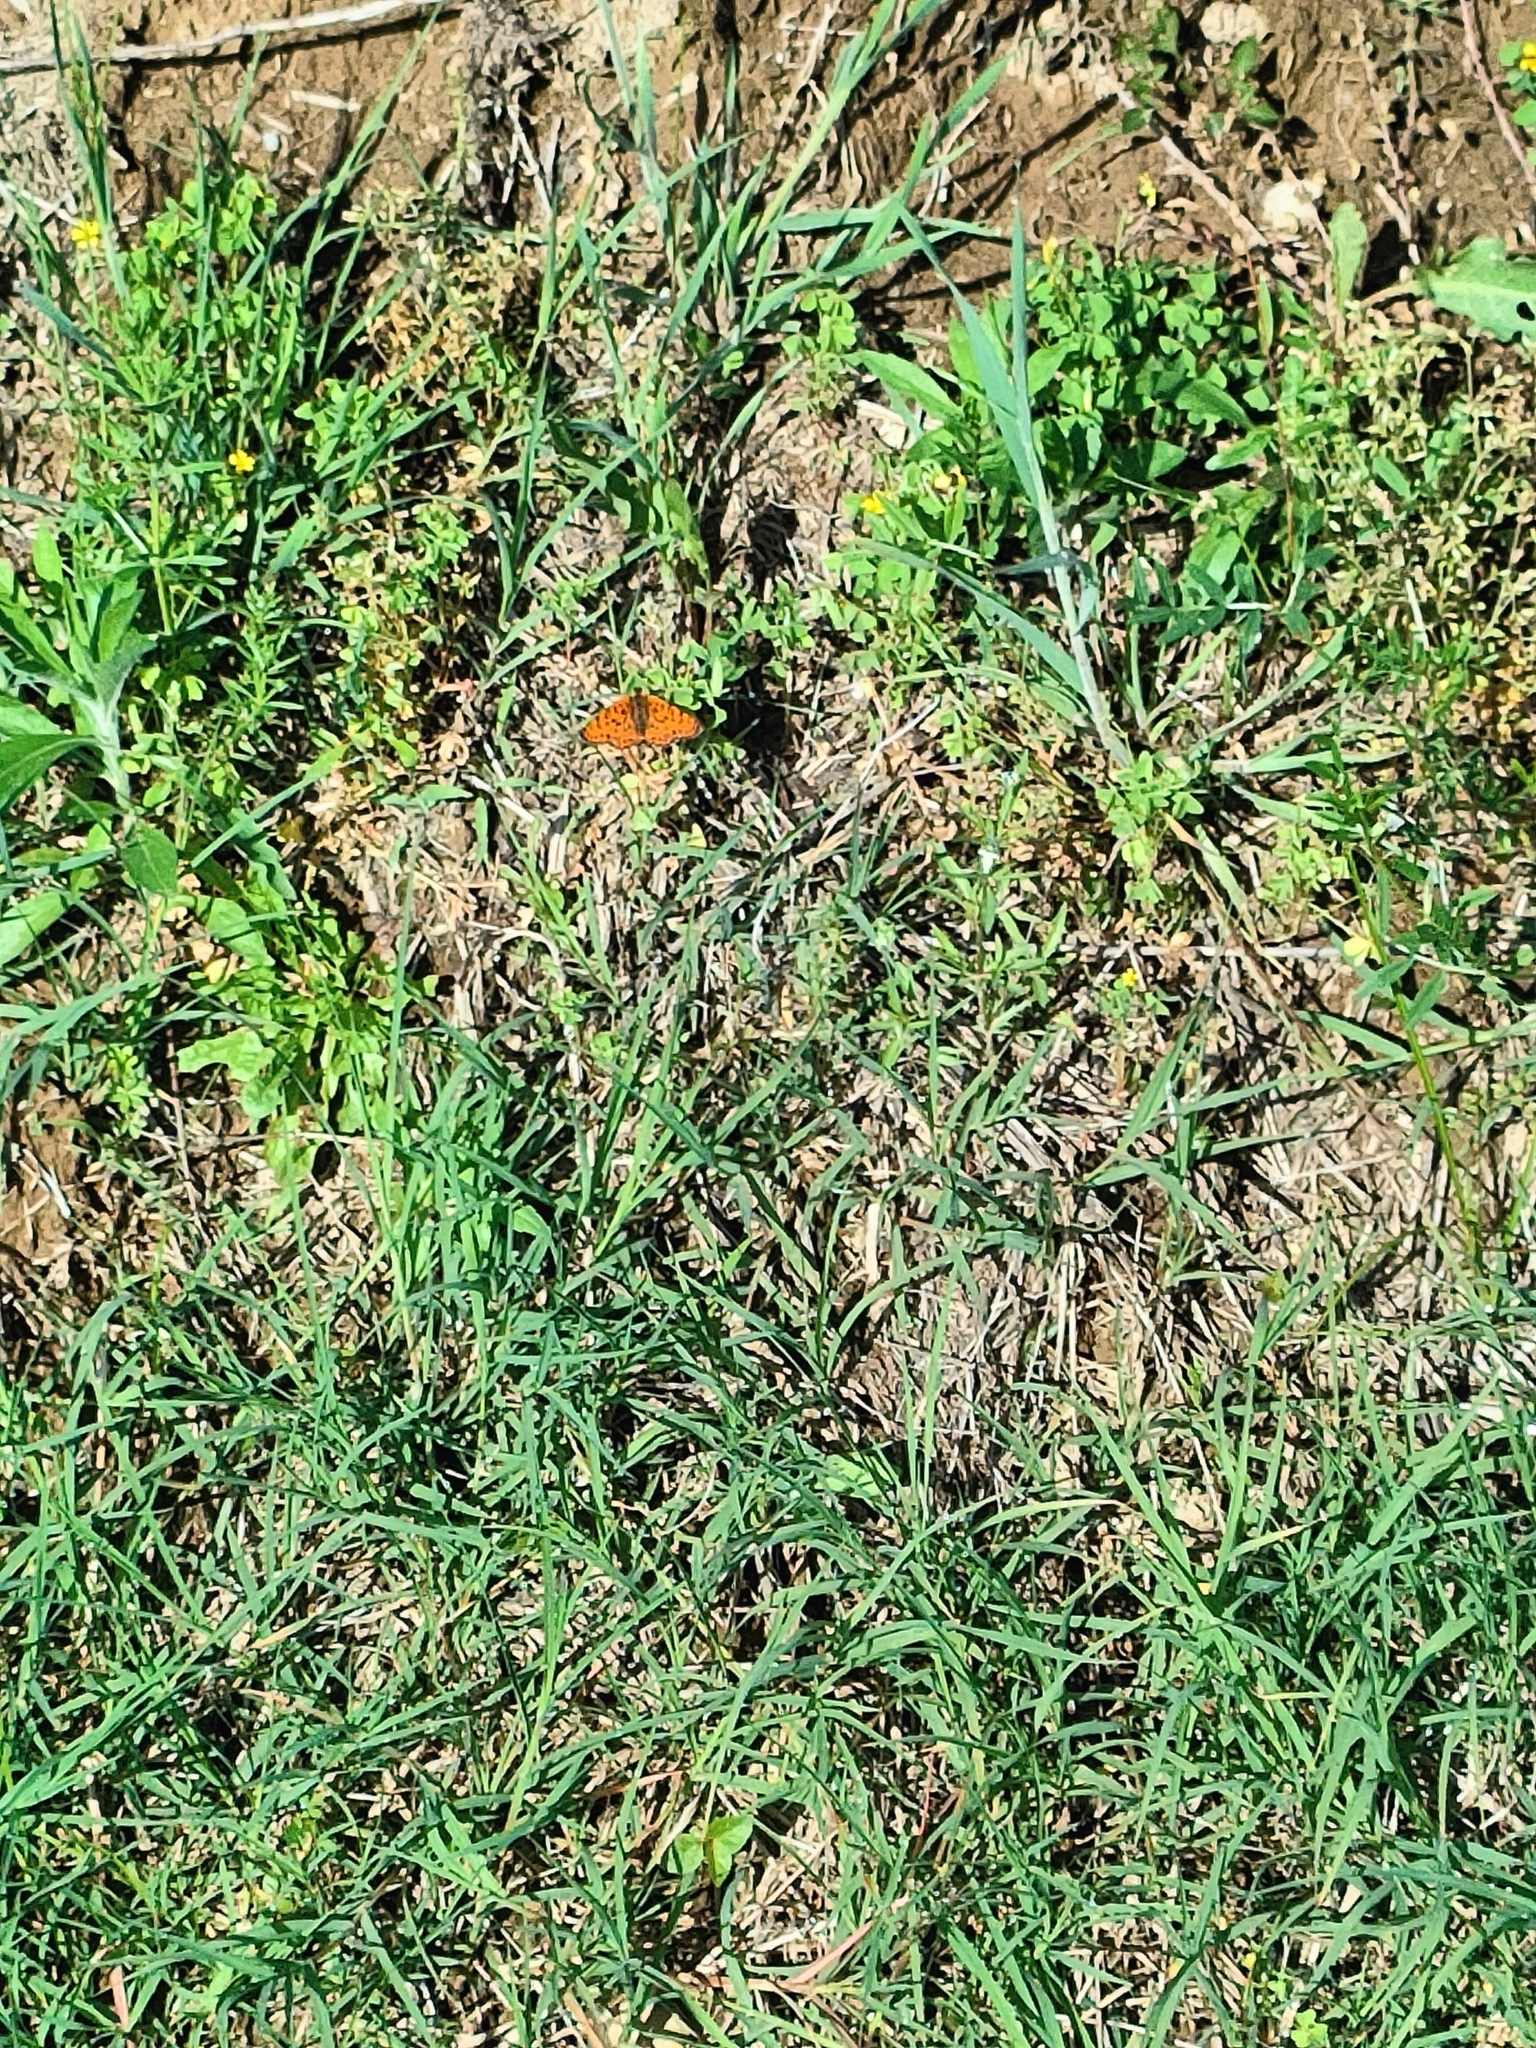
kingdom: Animalia
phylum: Arthropoda
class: Insecta
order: Lepidoptera
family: Nymphalidae
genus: Melitaea
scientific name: Melitaea didyma
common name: Spotted fritillary
